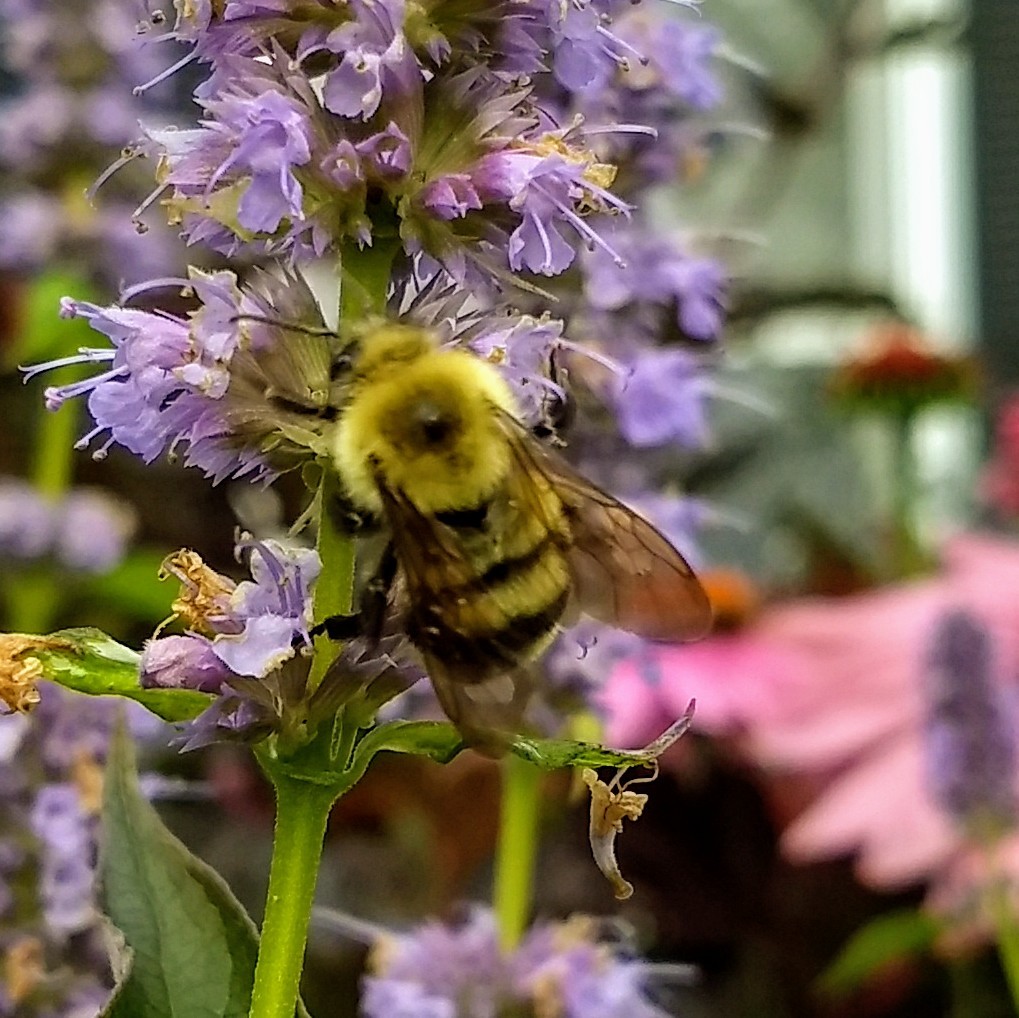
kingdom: Animalia
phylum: Arthropoda
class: Insecta
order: Hymenoptera
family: Apidae
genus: Bombus
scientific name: Bombus bimaculatus
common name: Two-spotted bumble bee
